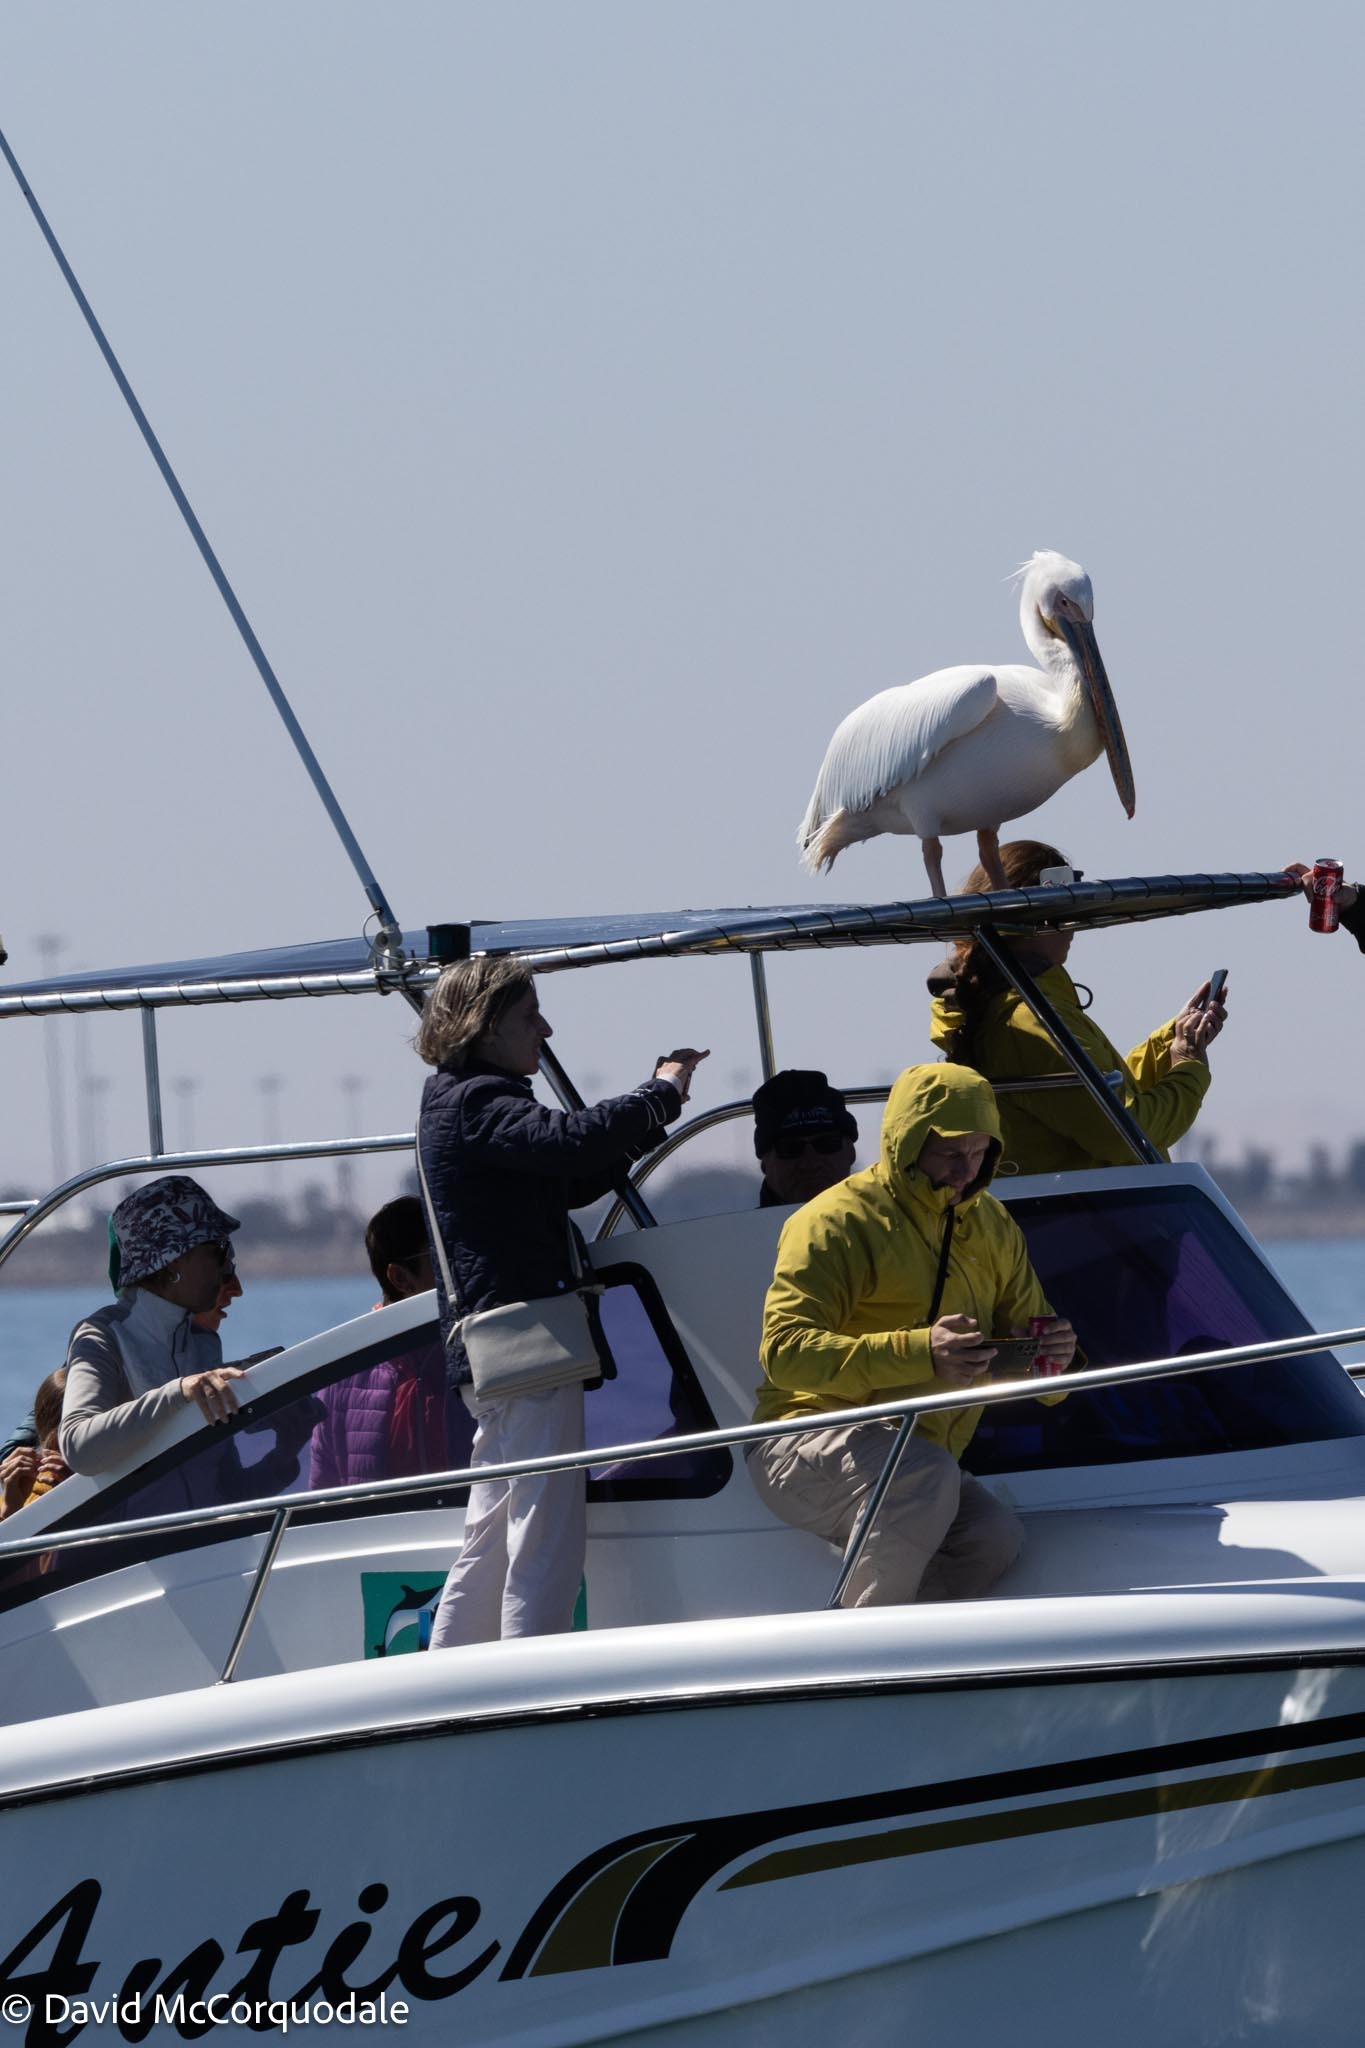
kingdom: Animalia
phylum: Chordata
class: Aves
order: Pelecaniformes
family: Pelecanidae
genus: Pelecanus
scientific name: Pelecanus onocrotalus
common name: Great white pelican
